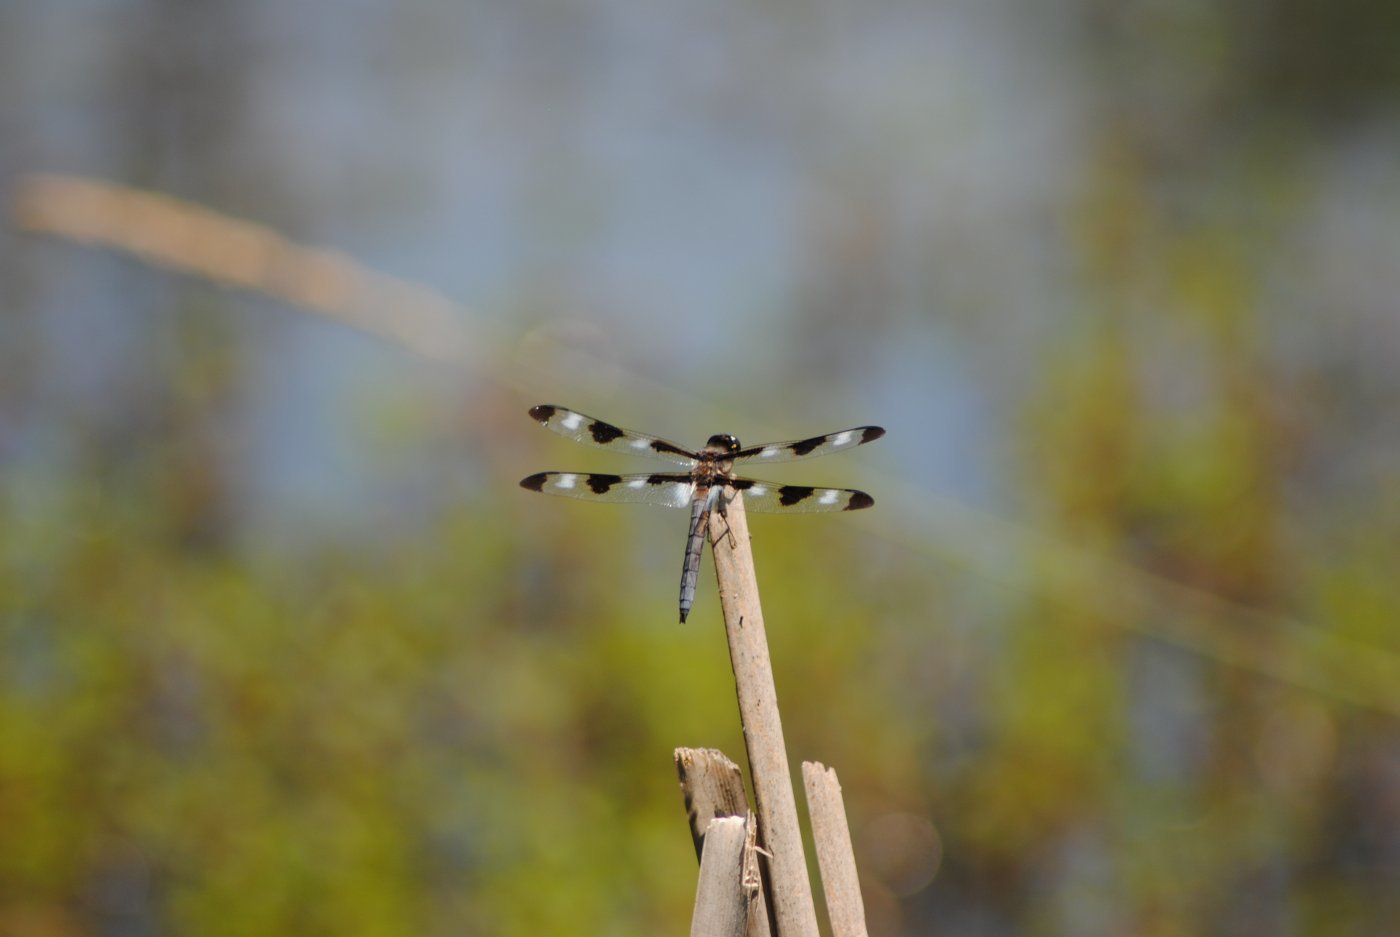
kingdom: Animalia
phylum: Arthropoda
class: Insecta
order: Odonata
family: Libellulidae
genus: Libellula
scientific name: Libellula pulchella
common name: Twelve-spotted skimmer
